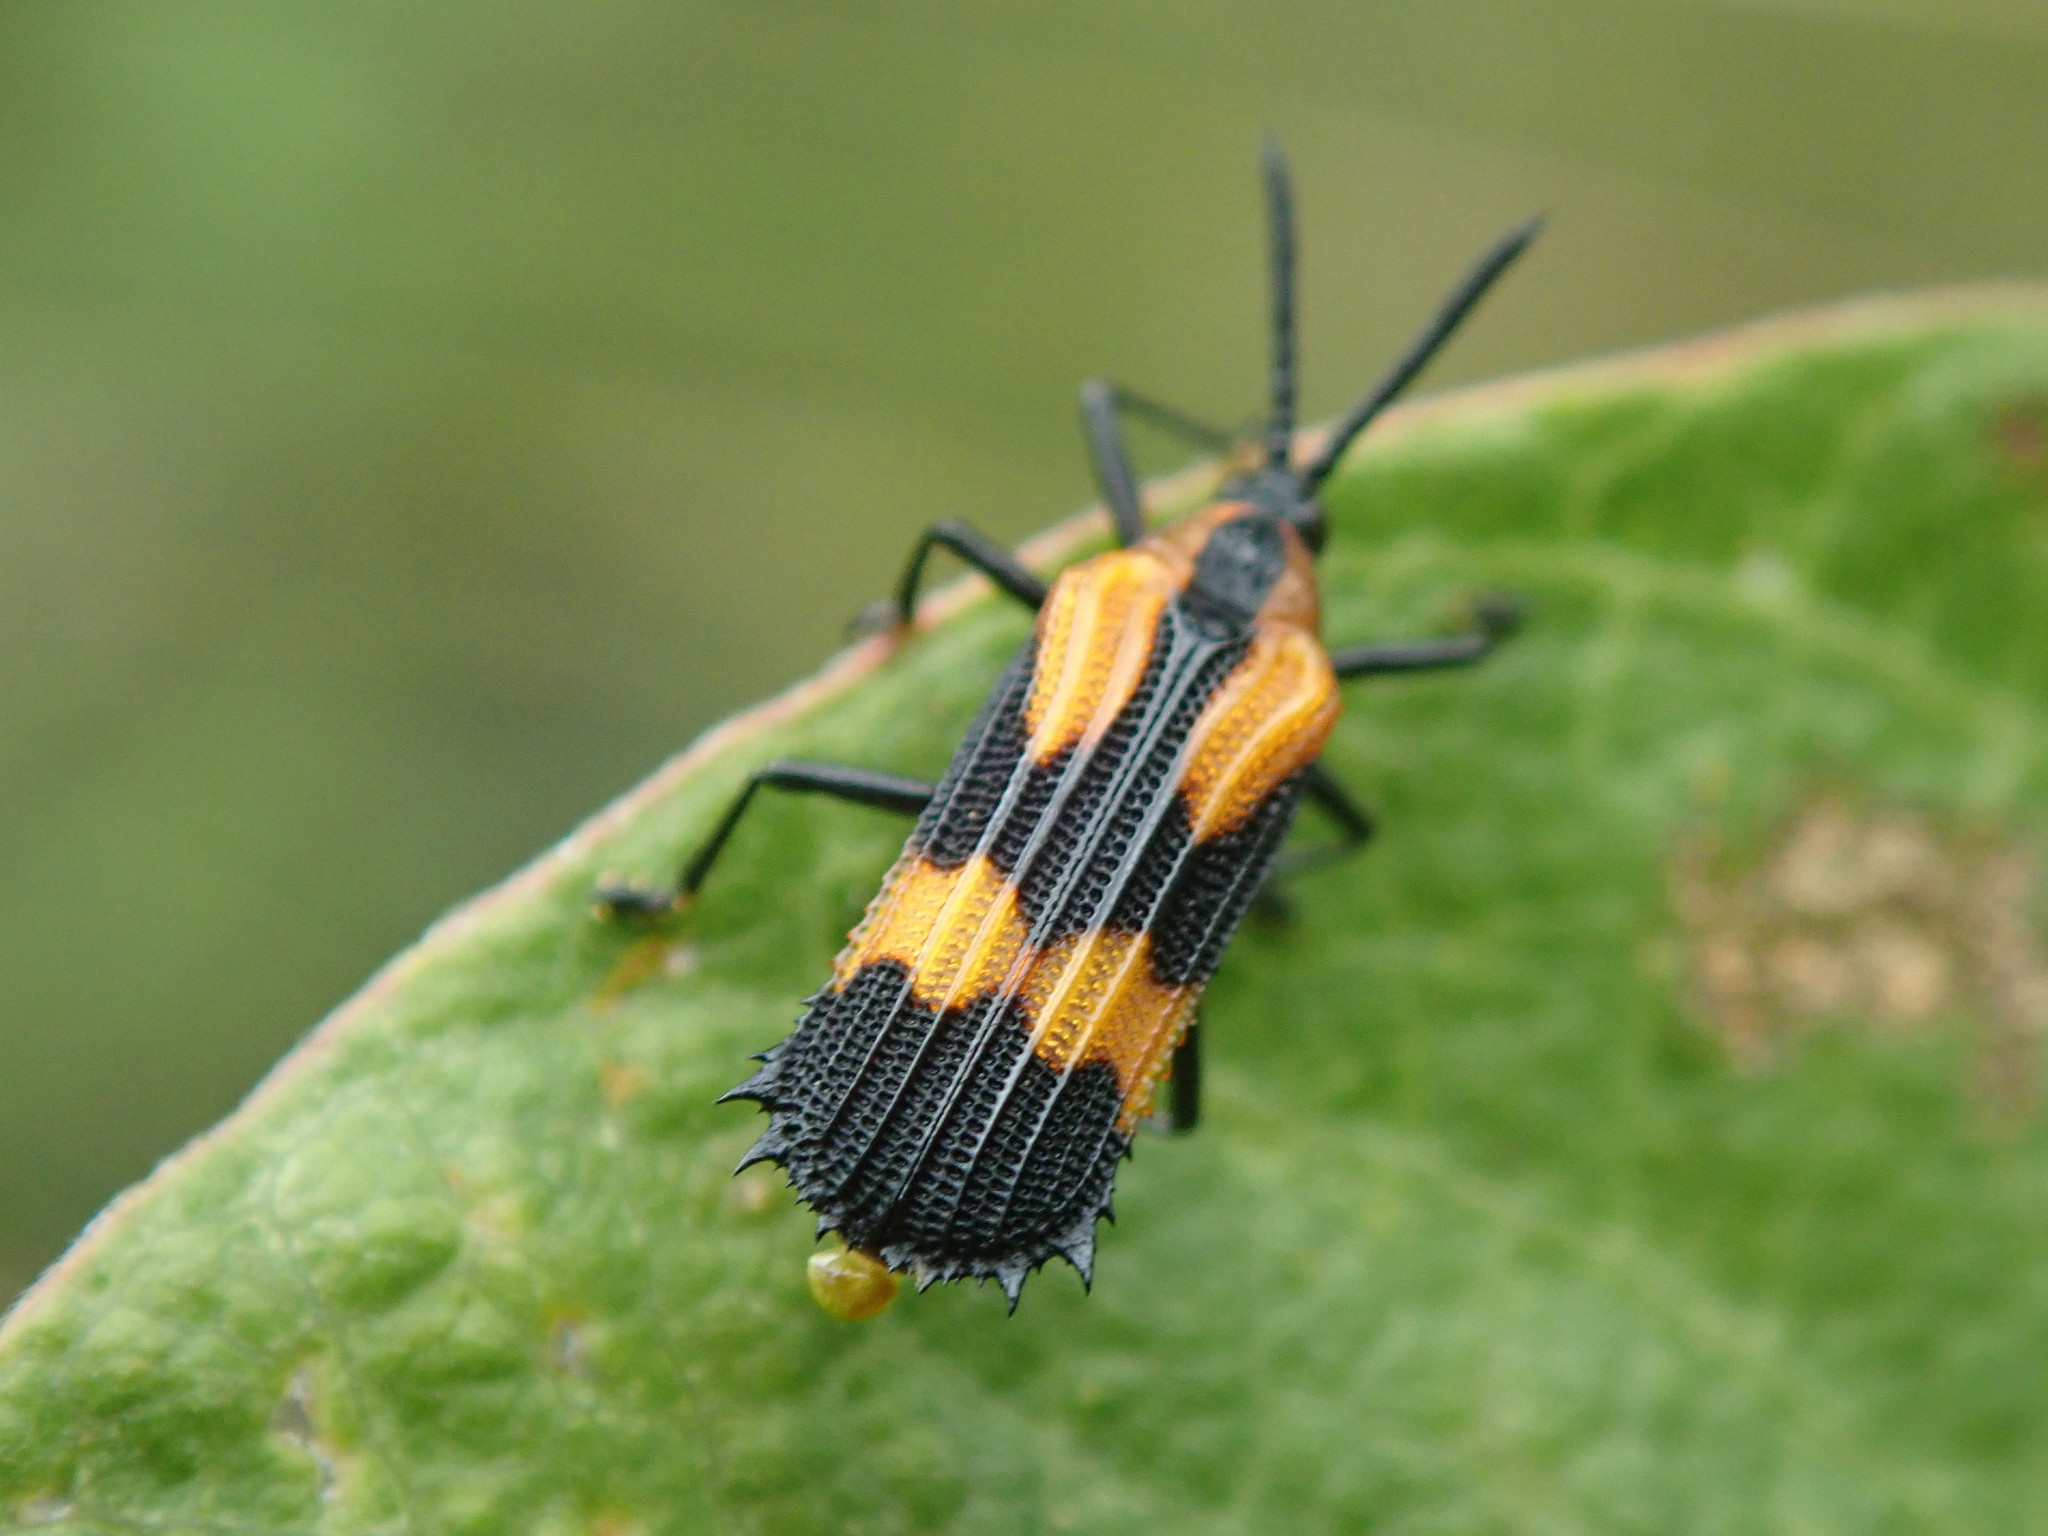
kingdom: Animalia
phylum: Arthropoda
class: Insecta
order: Coleoptera
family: Chrysomelidae
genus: Oxychalepus
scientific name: Oxychalepus anchora
